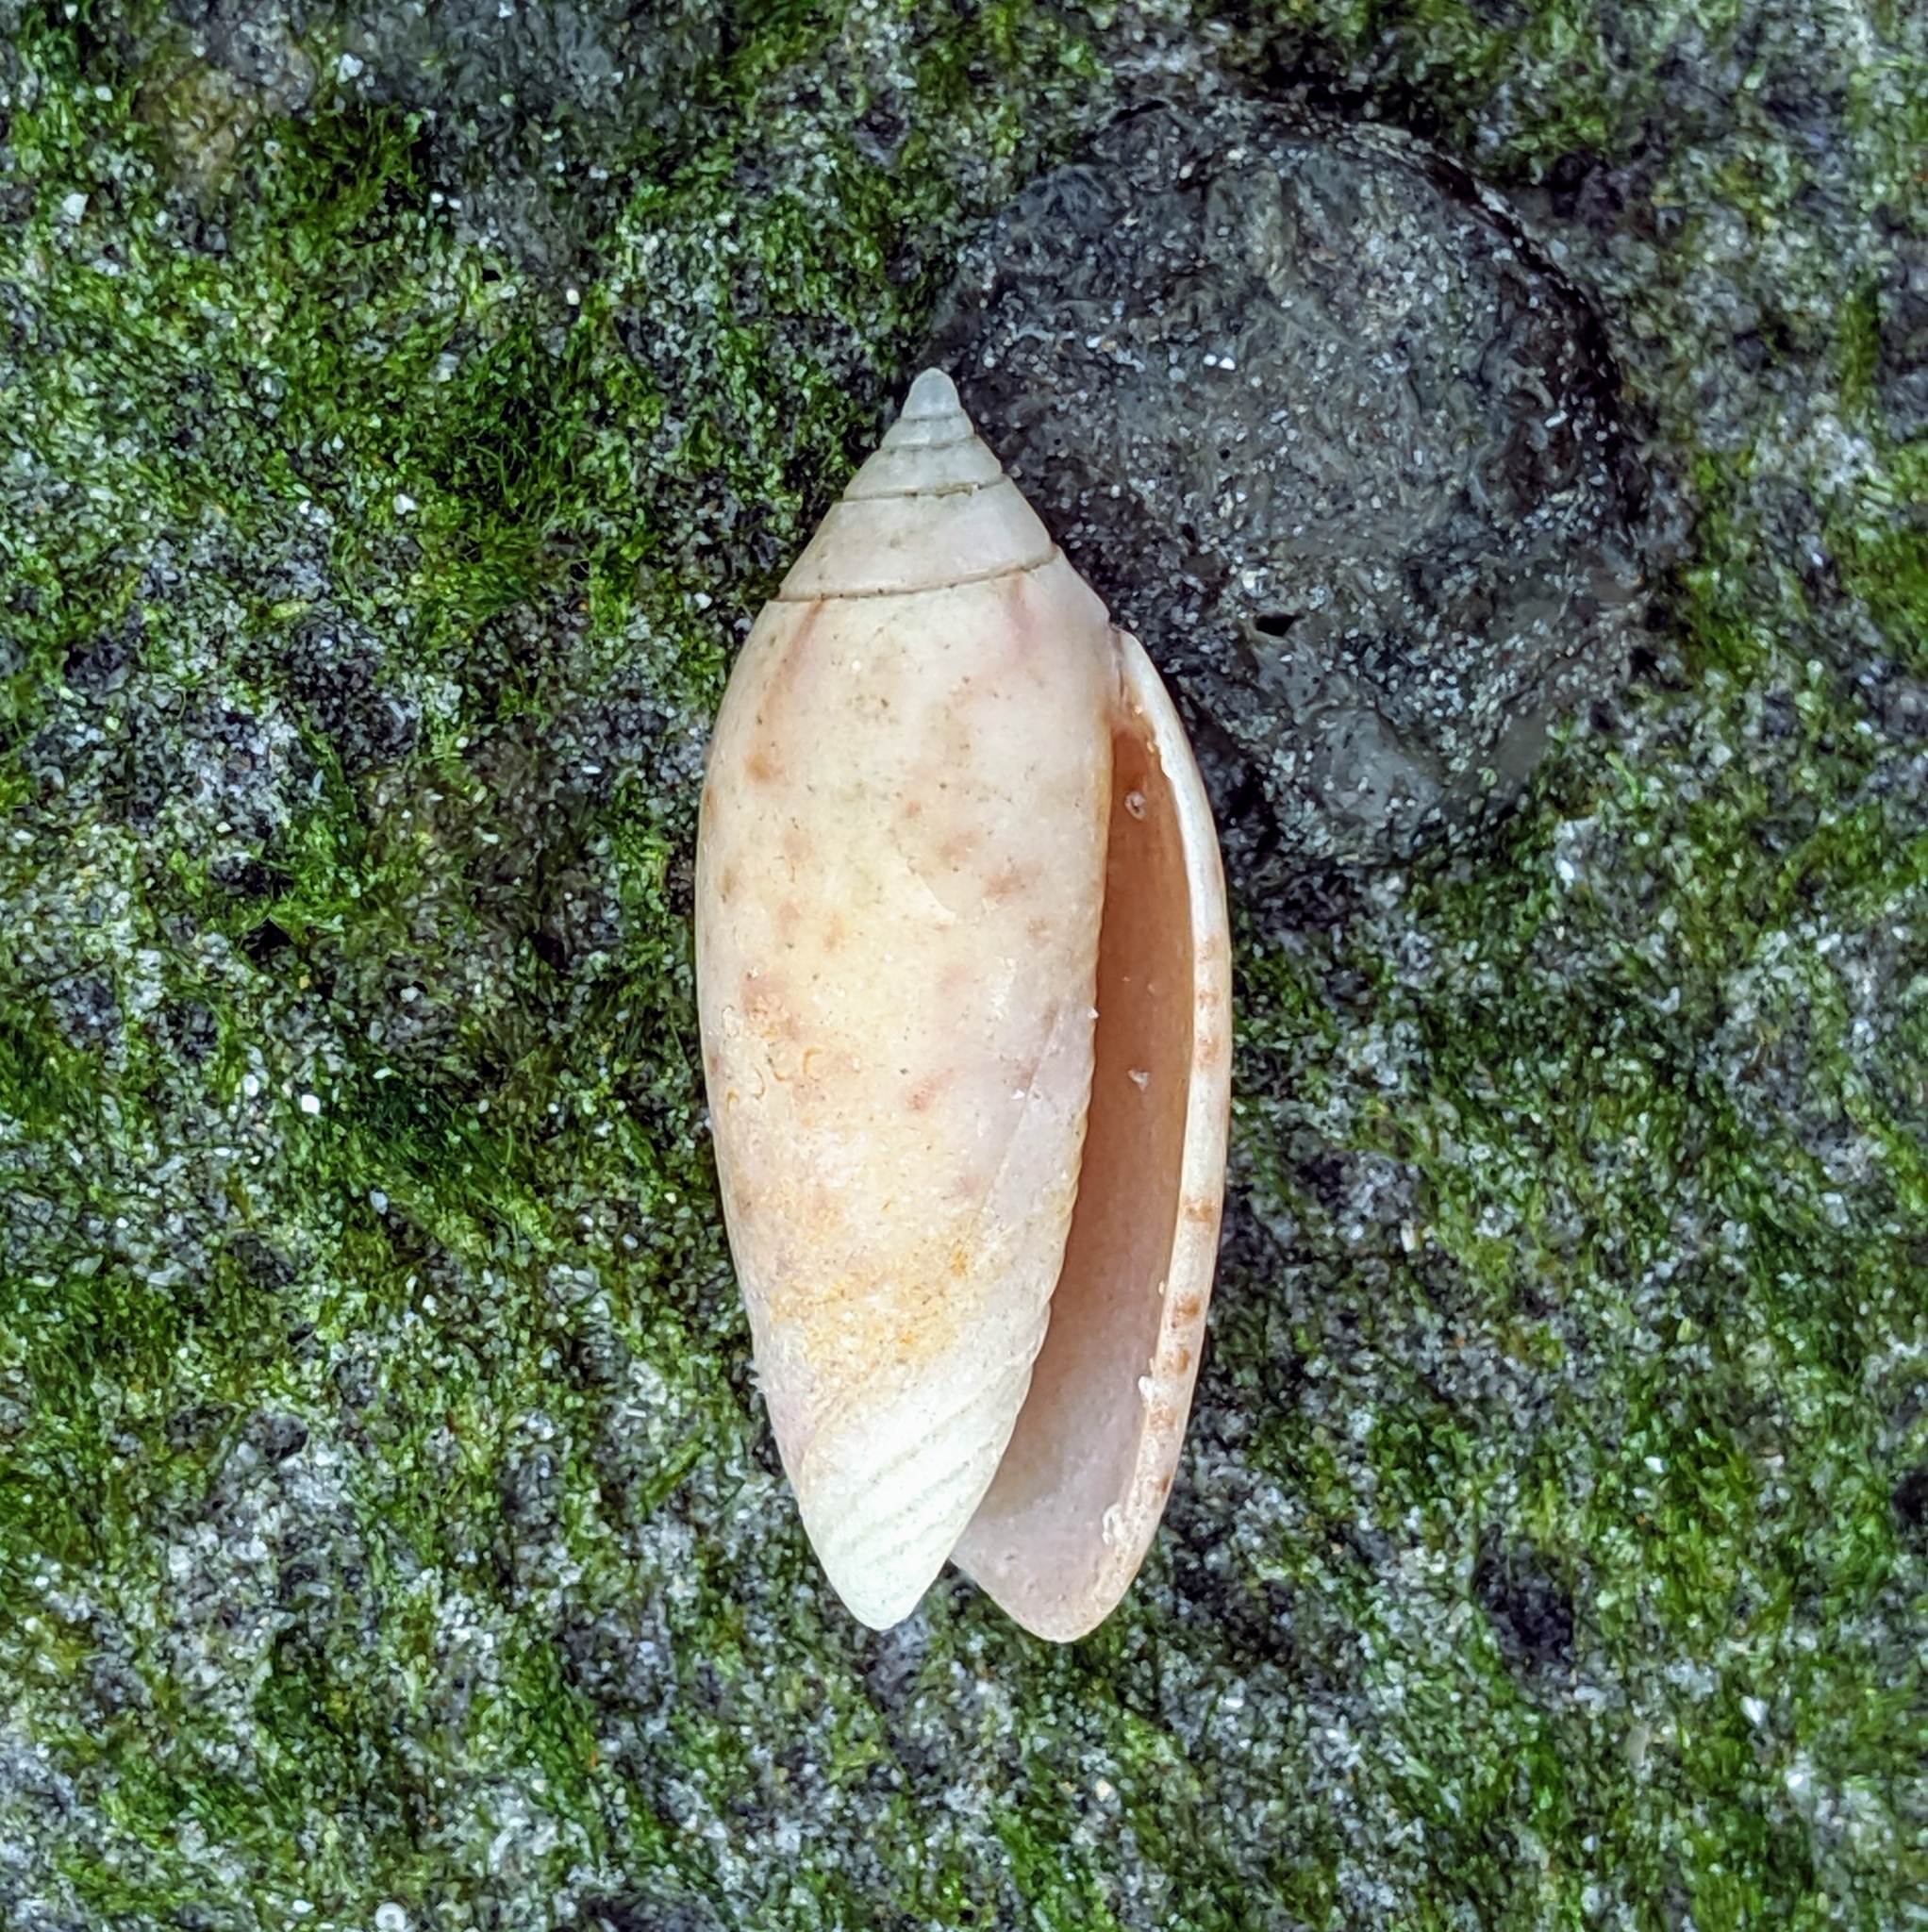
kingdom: Animalia
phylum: Mollusca
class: Gastropoda
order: Neogastropoda
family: Olividae
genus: Oliva
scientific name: Oliva oliva
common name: Common olive
